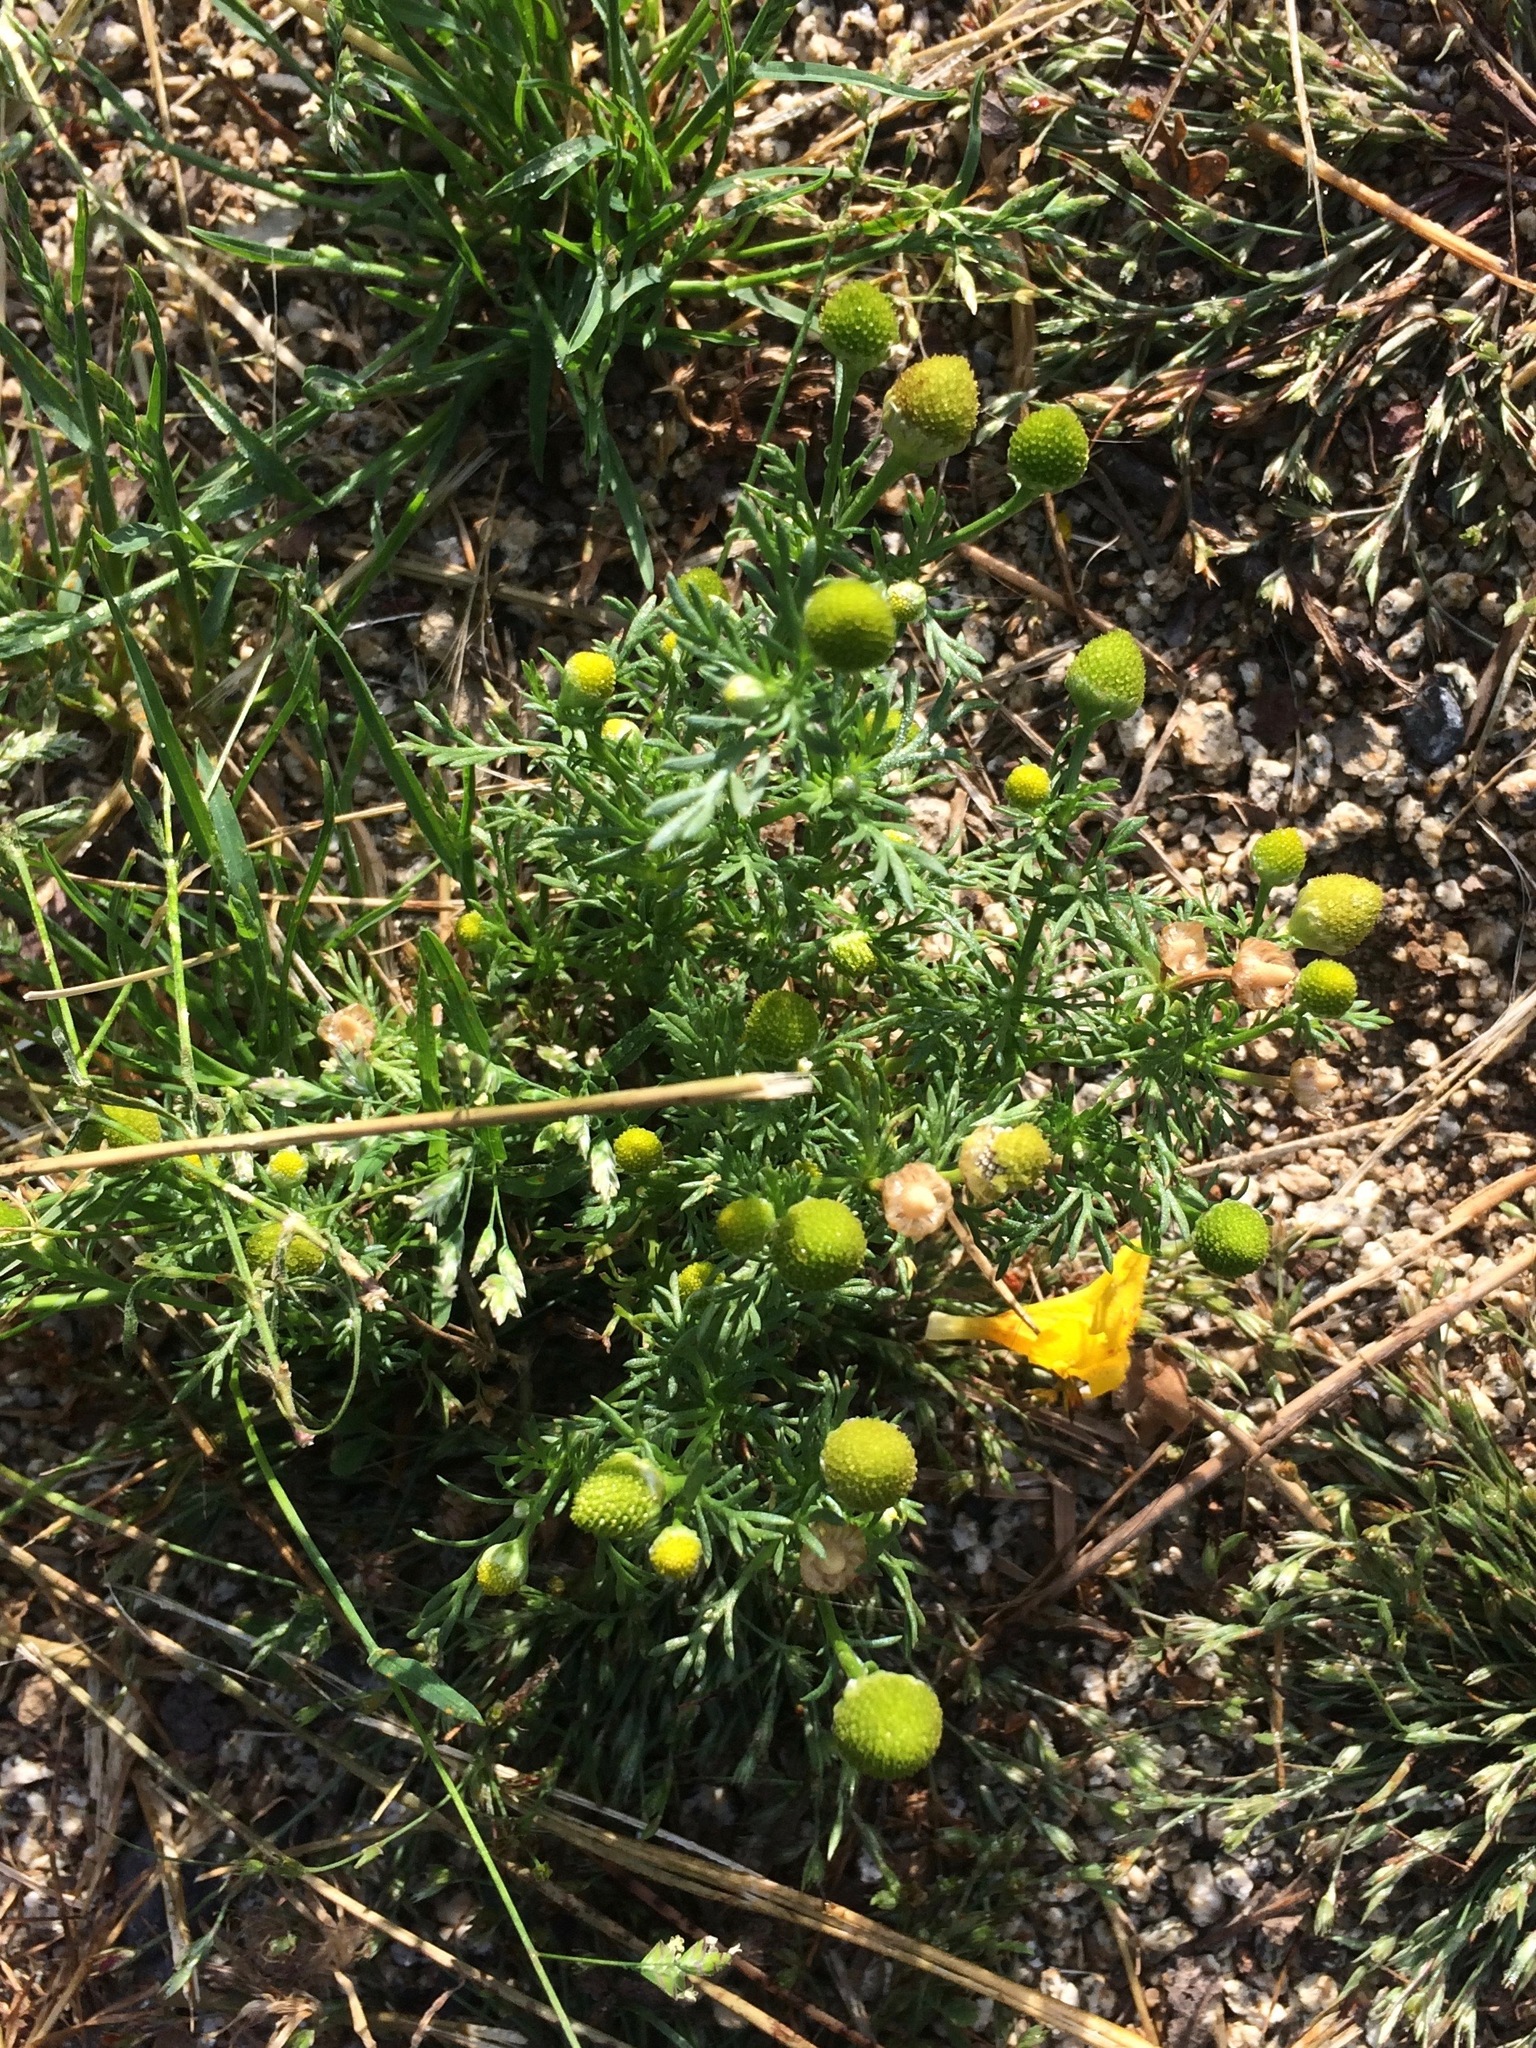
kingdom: Plantae
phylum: Tracheophyta
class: Magnoliopsida
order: Asterales
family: Asteraceae
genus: Matricaria
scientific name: Matricaria discoidea
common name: Disc mayweed
